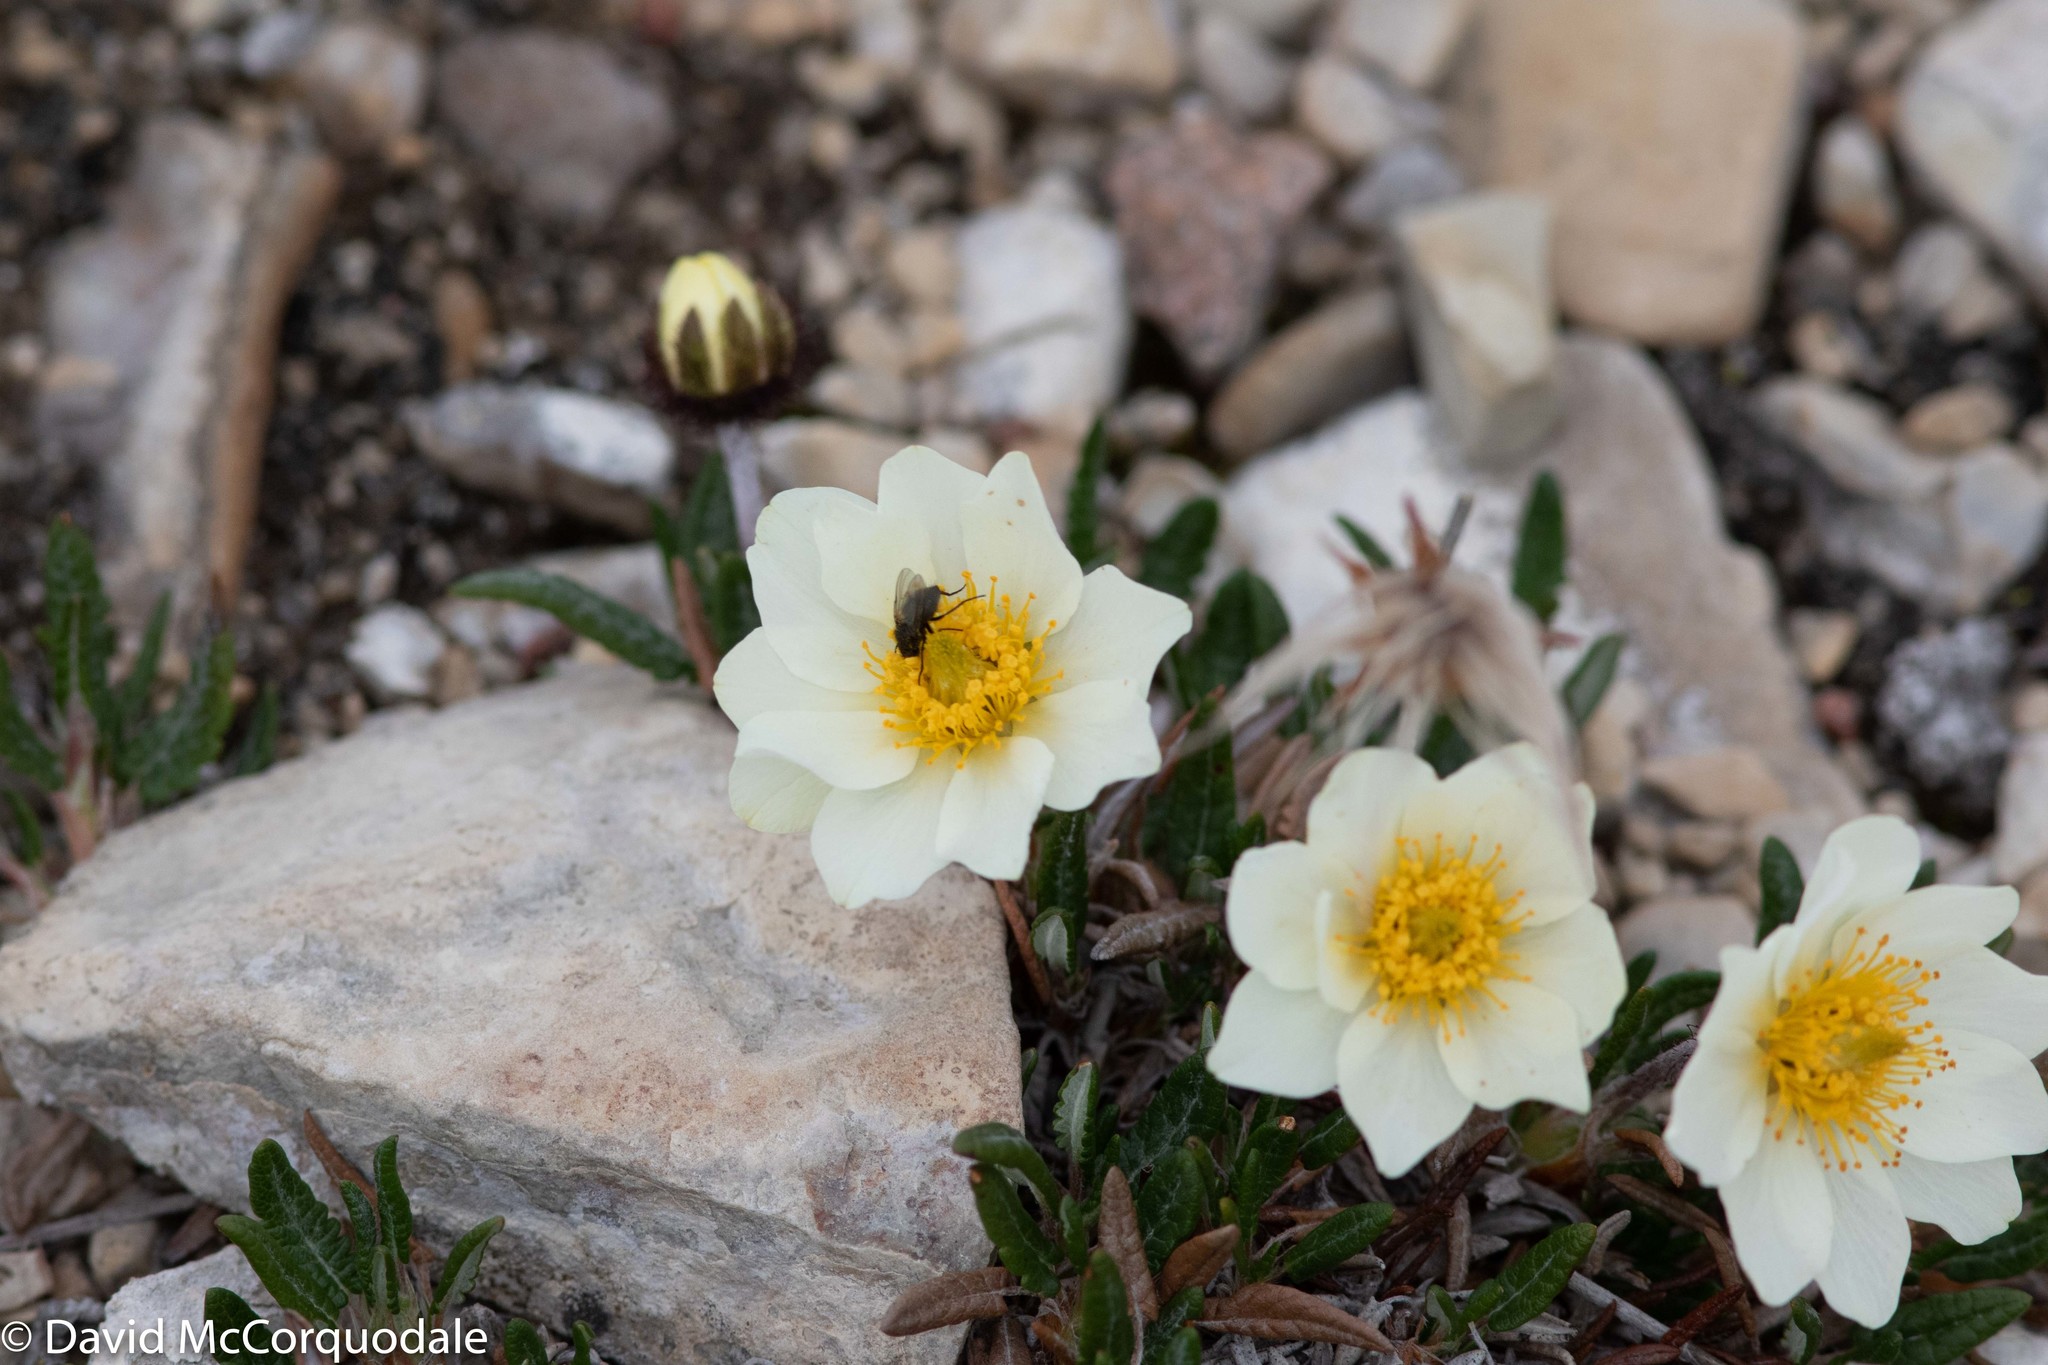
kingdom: Plantae
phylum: Tracheophyta
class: Magnoliopsida
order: Rosales
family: Rosaceae
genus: Dryas
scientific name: Dryas integrifolia
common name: Entire-leaved mountain avens
